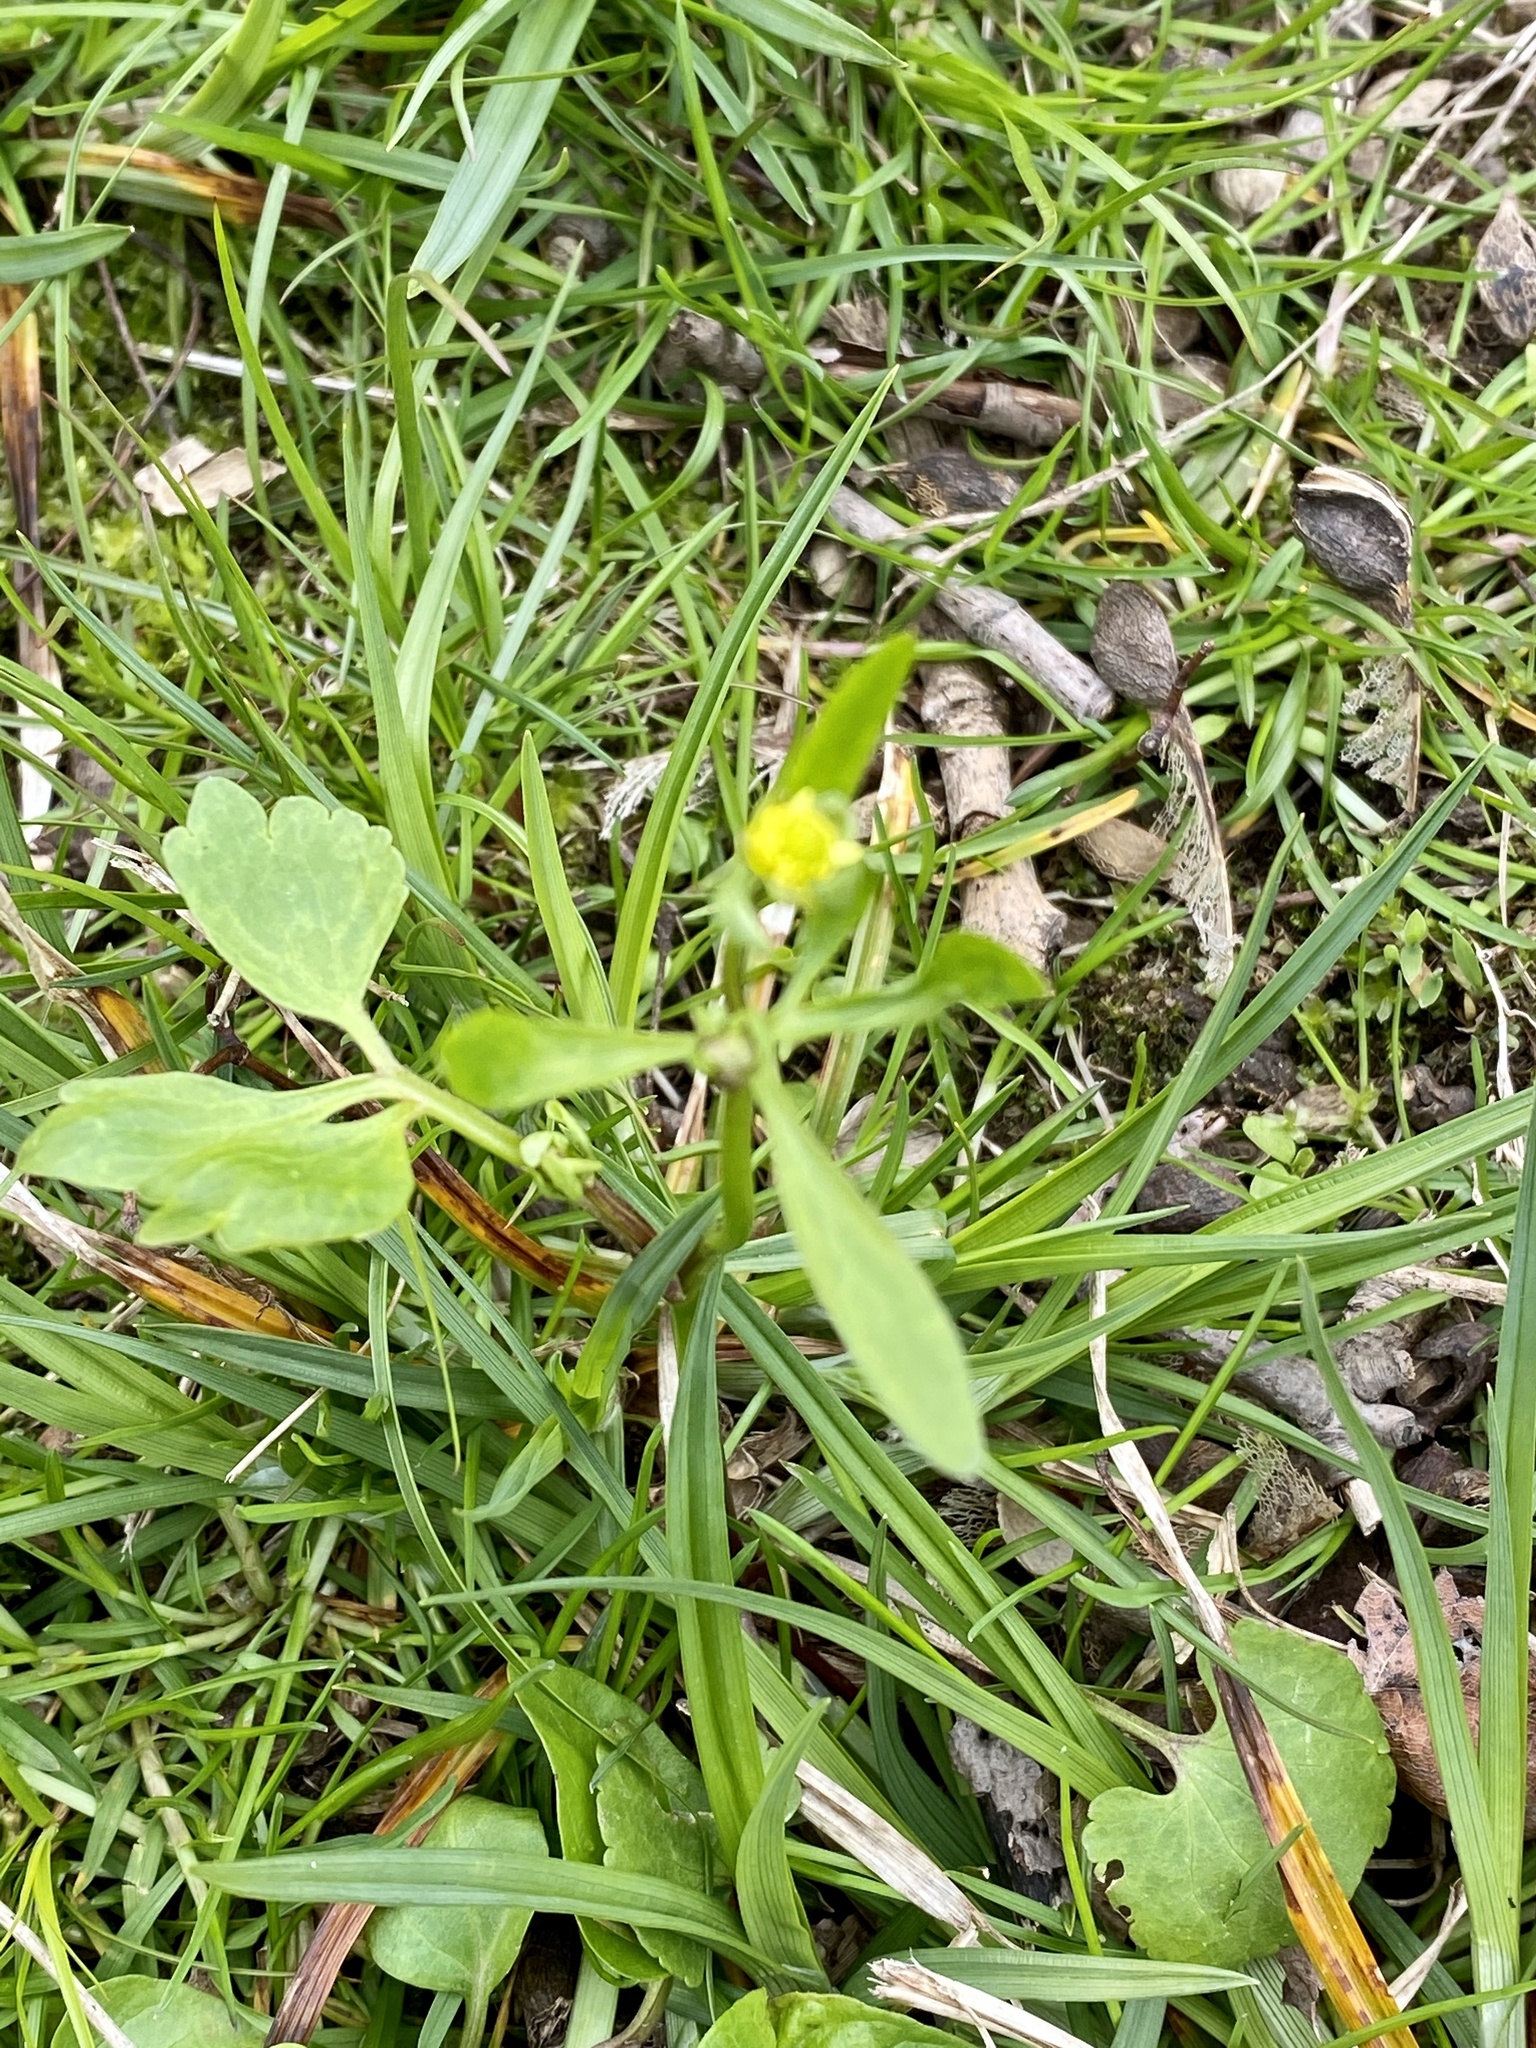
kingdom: Plantae
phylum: Tracheophyta
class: Magnoliopsida
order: Ranunculales
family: Ranunculaceae
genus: Ranunculus
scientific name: Ranunculus abortivus
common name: Early wood buttercup
